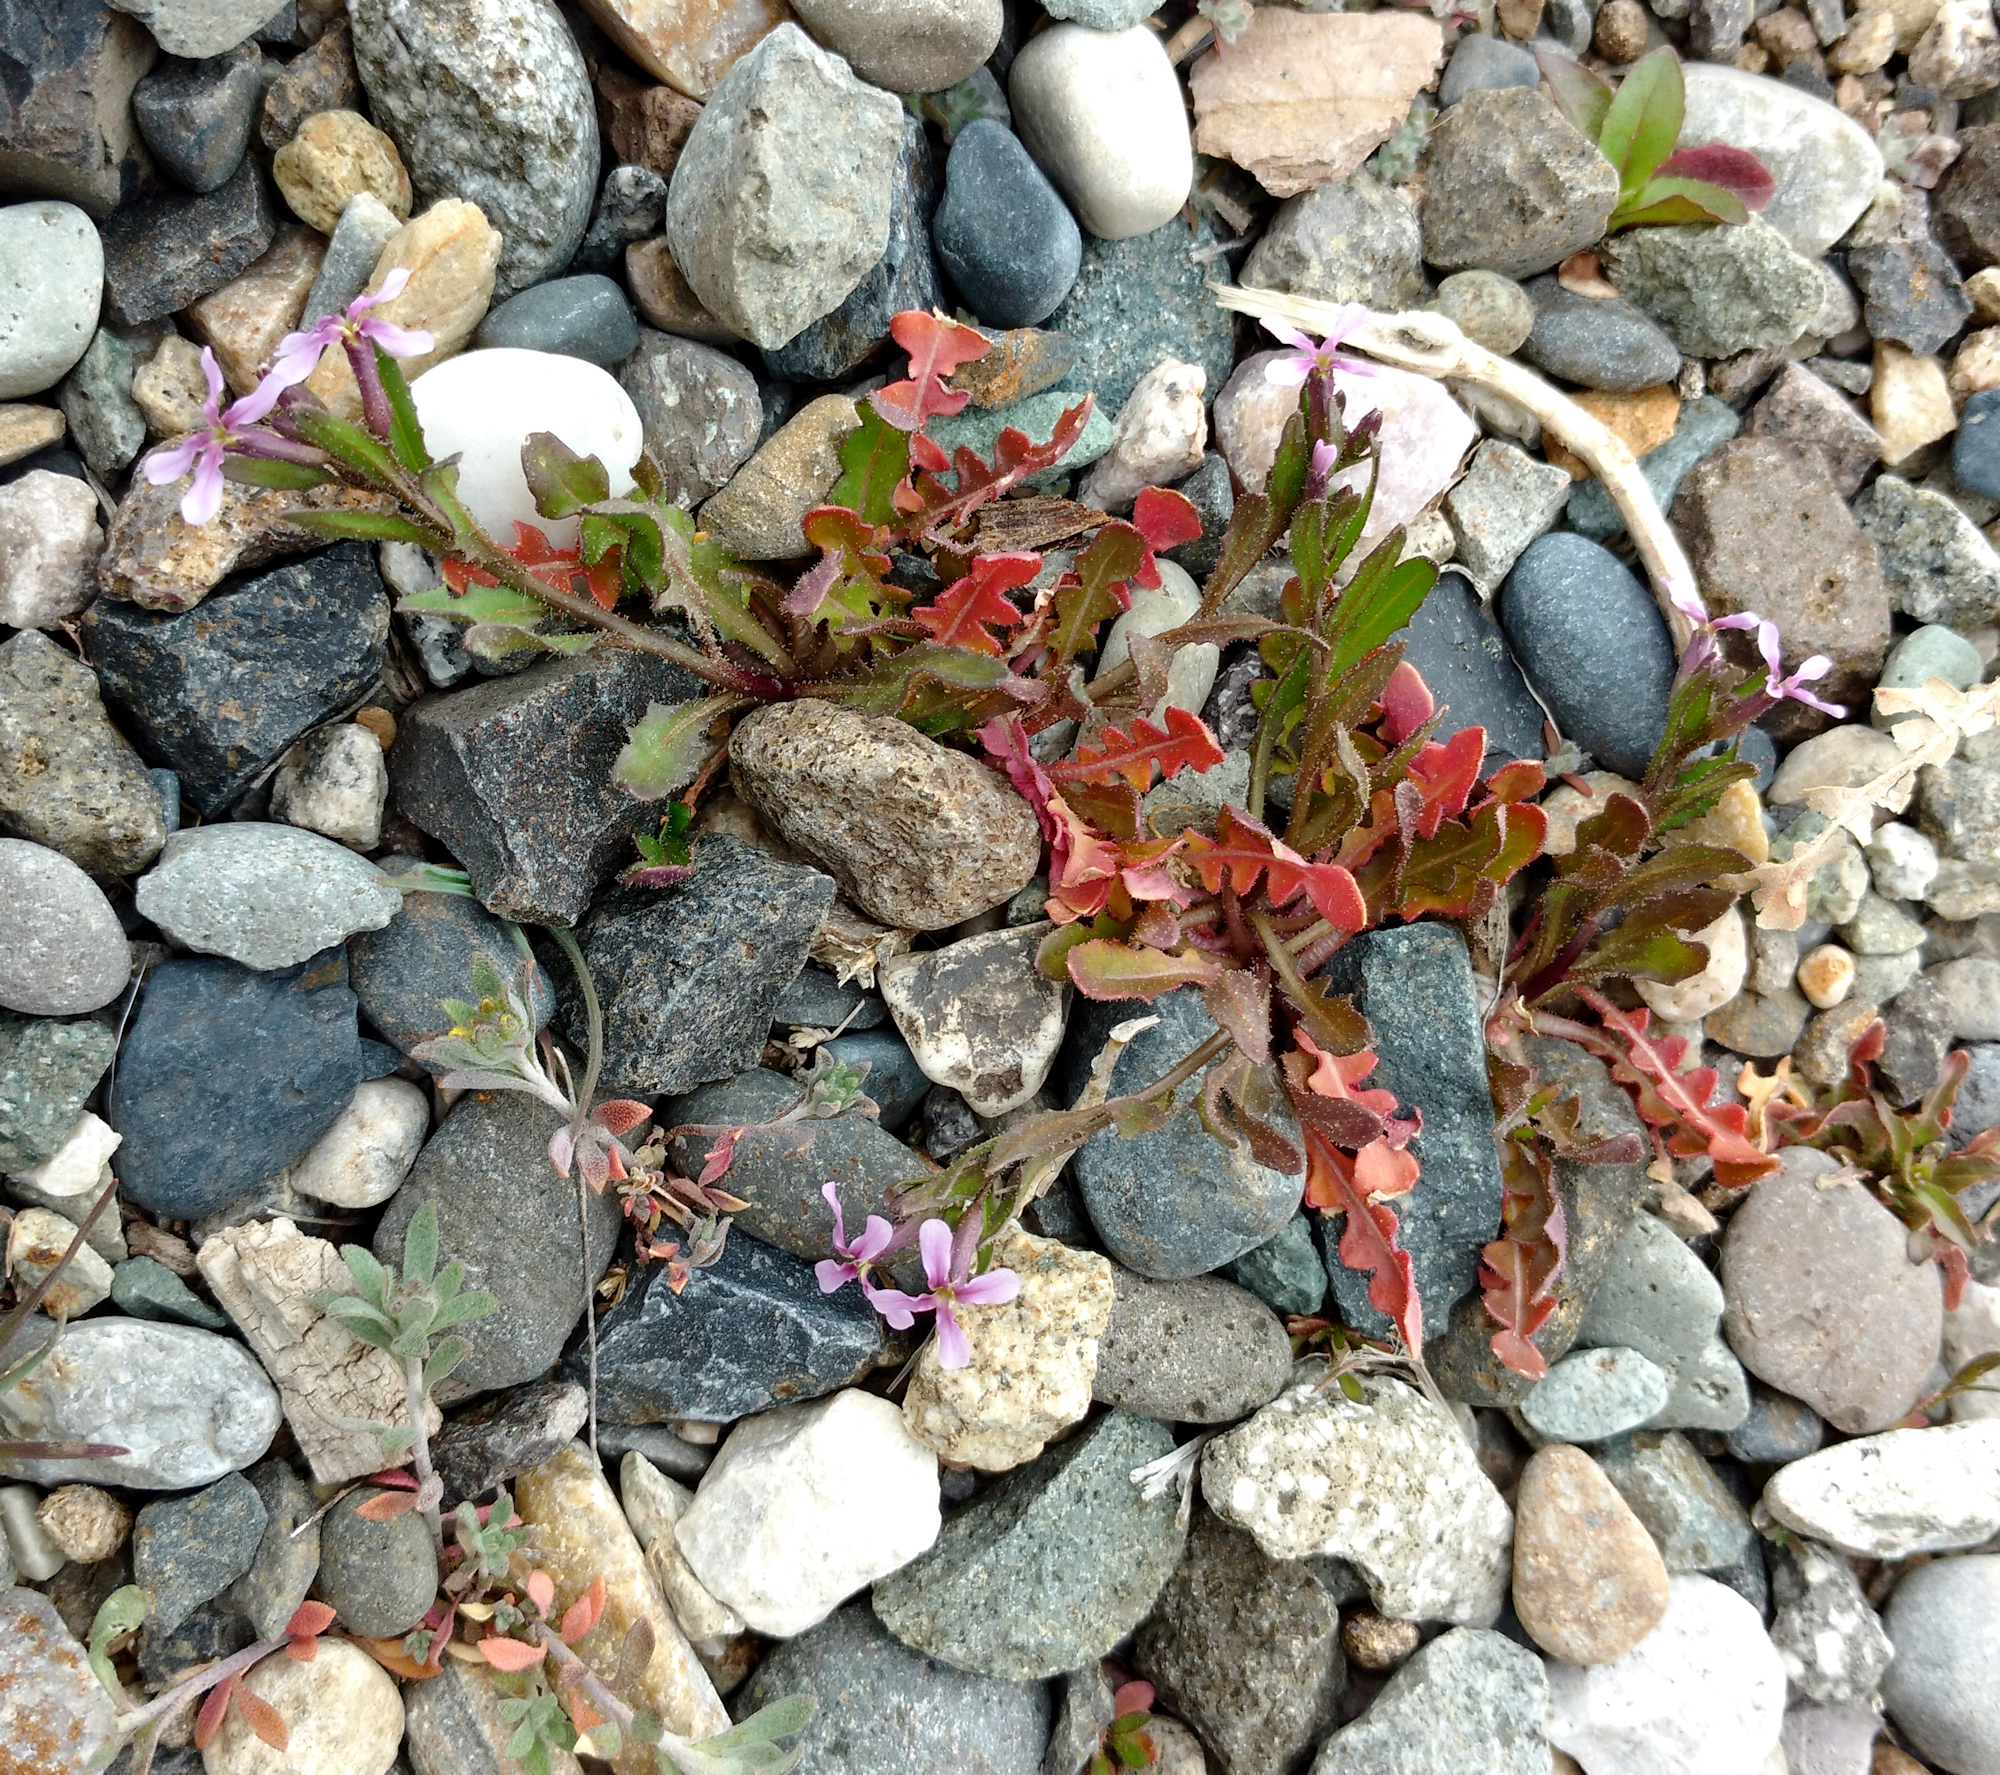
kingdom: Plantae
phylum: Tracheophyta
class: Magnoliopsida
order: Brassicales
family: Brassicaceae
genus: Chorispora
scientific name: Chorispora tenella
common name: Crossflower
